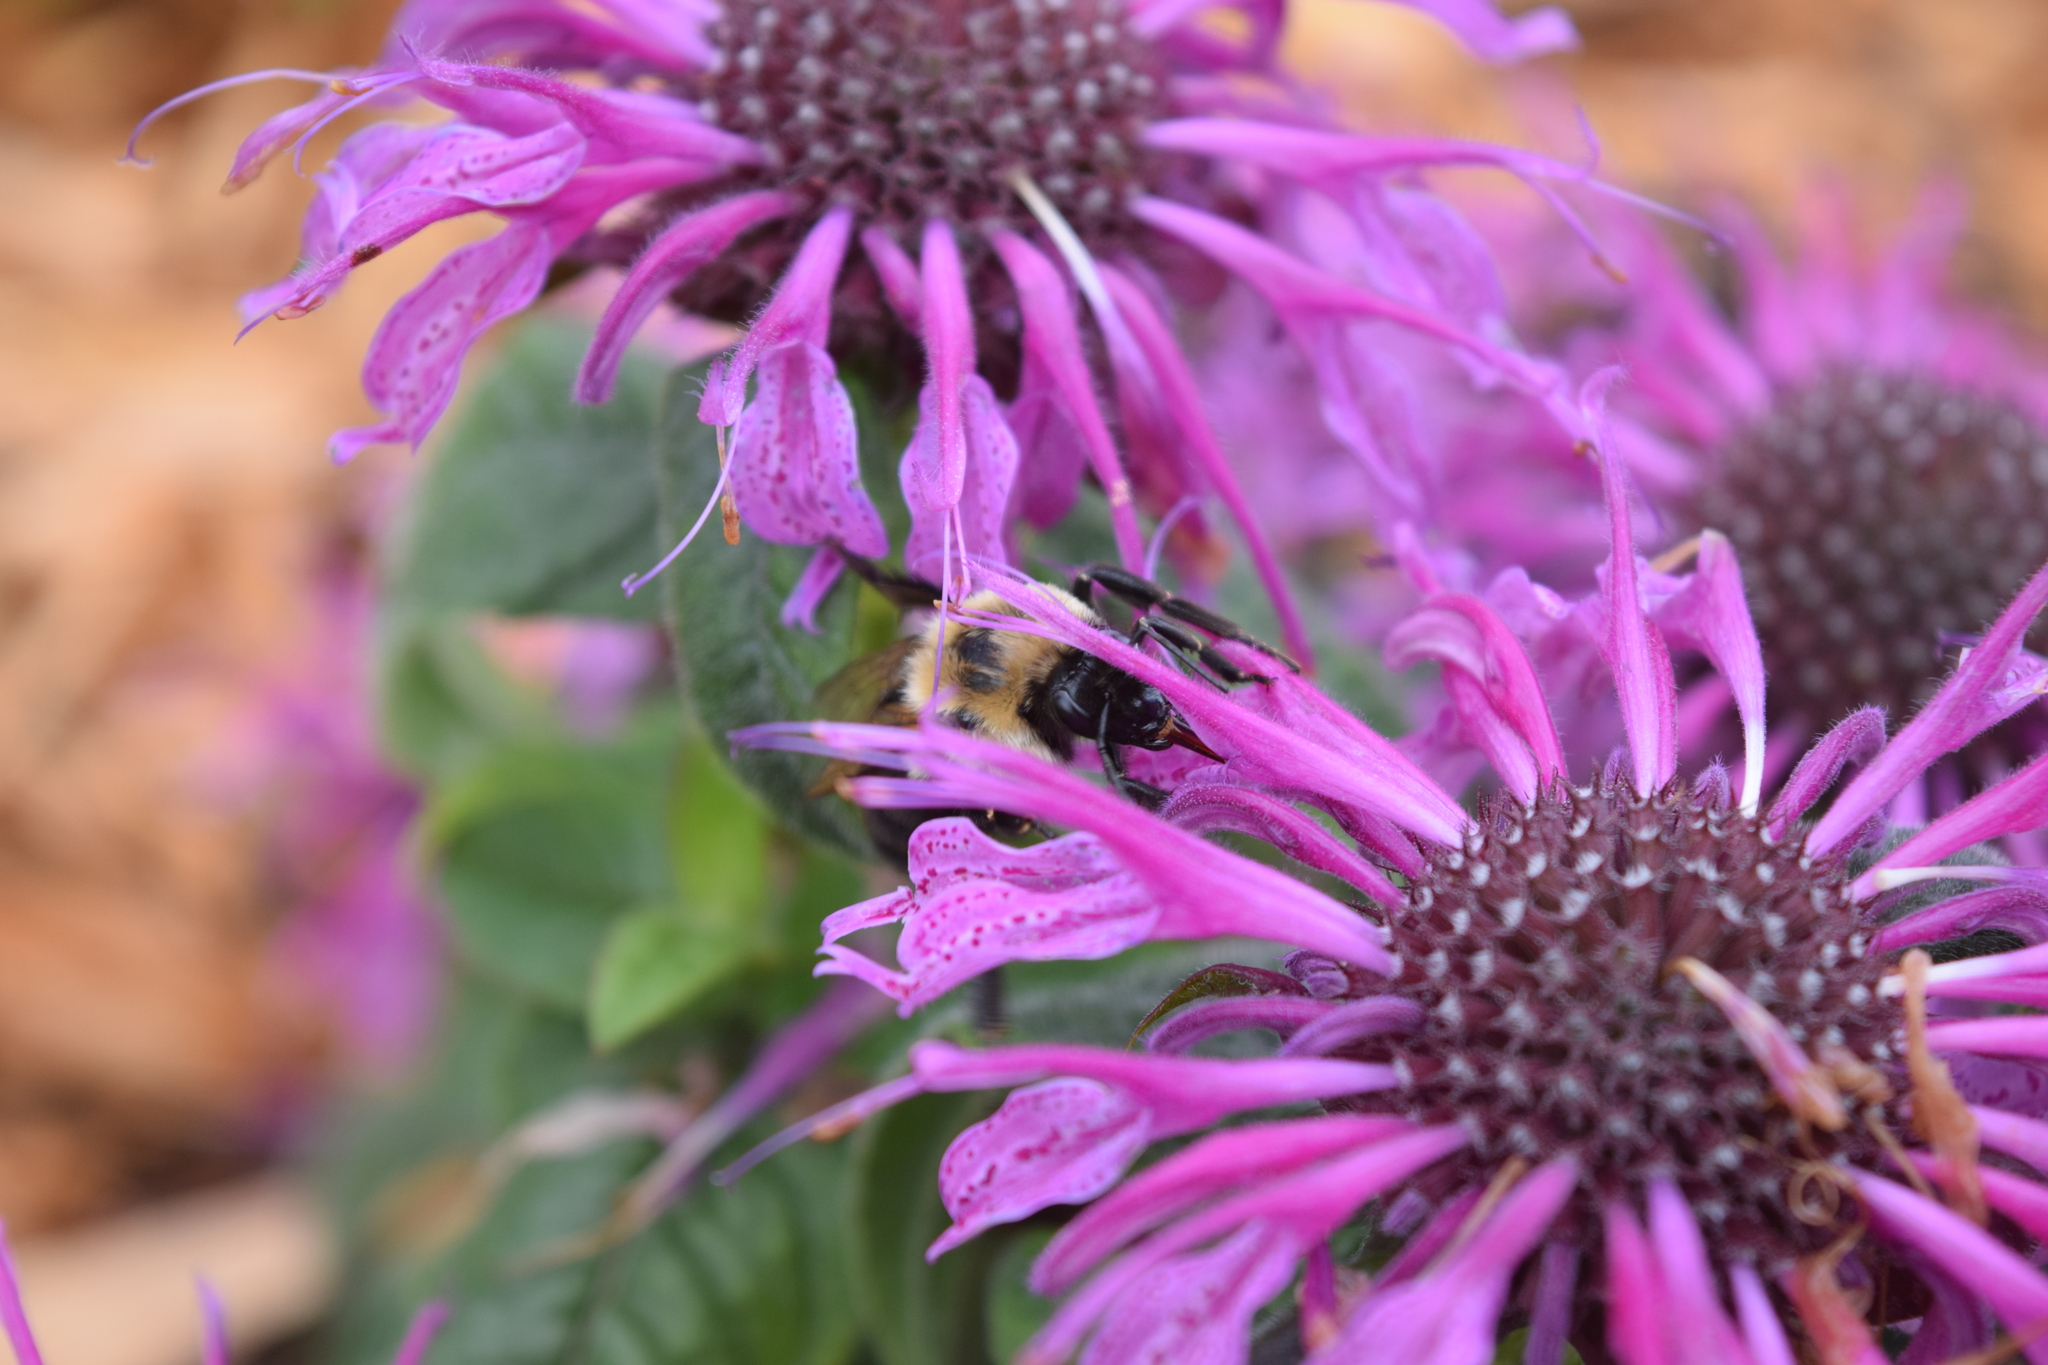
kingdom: Animalia
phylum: Arthropoda
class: Insecta
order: Hymenoptera
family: Apidae
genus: Bombus
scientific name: Bombus impatiens
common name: Common eastern bumble bee
